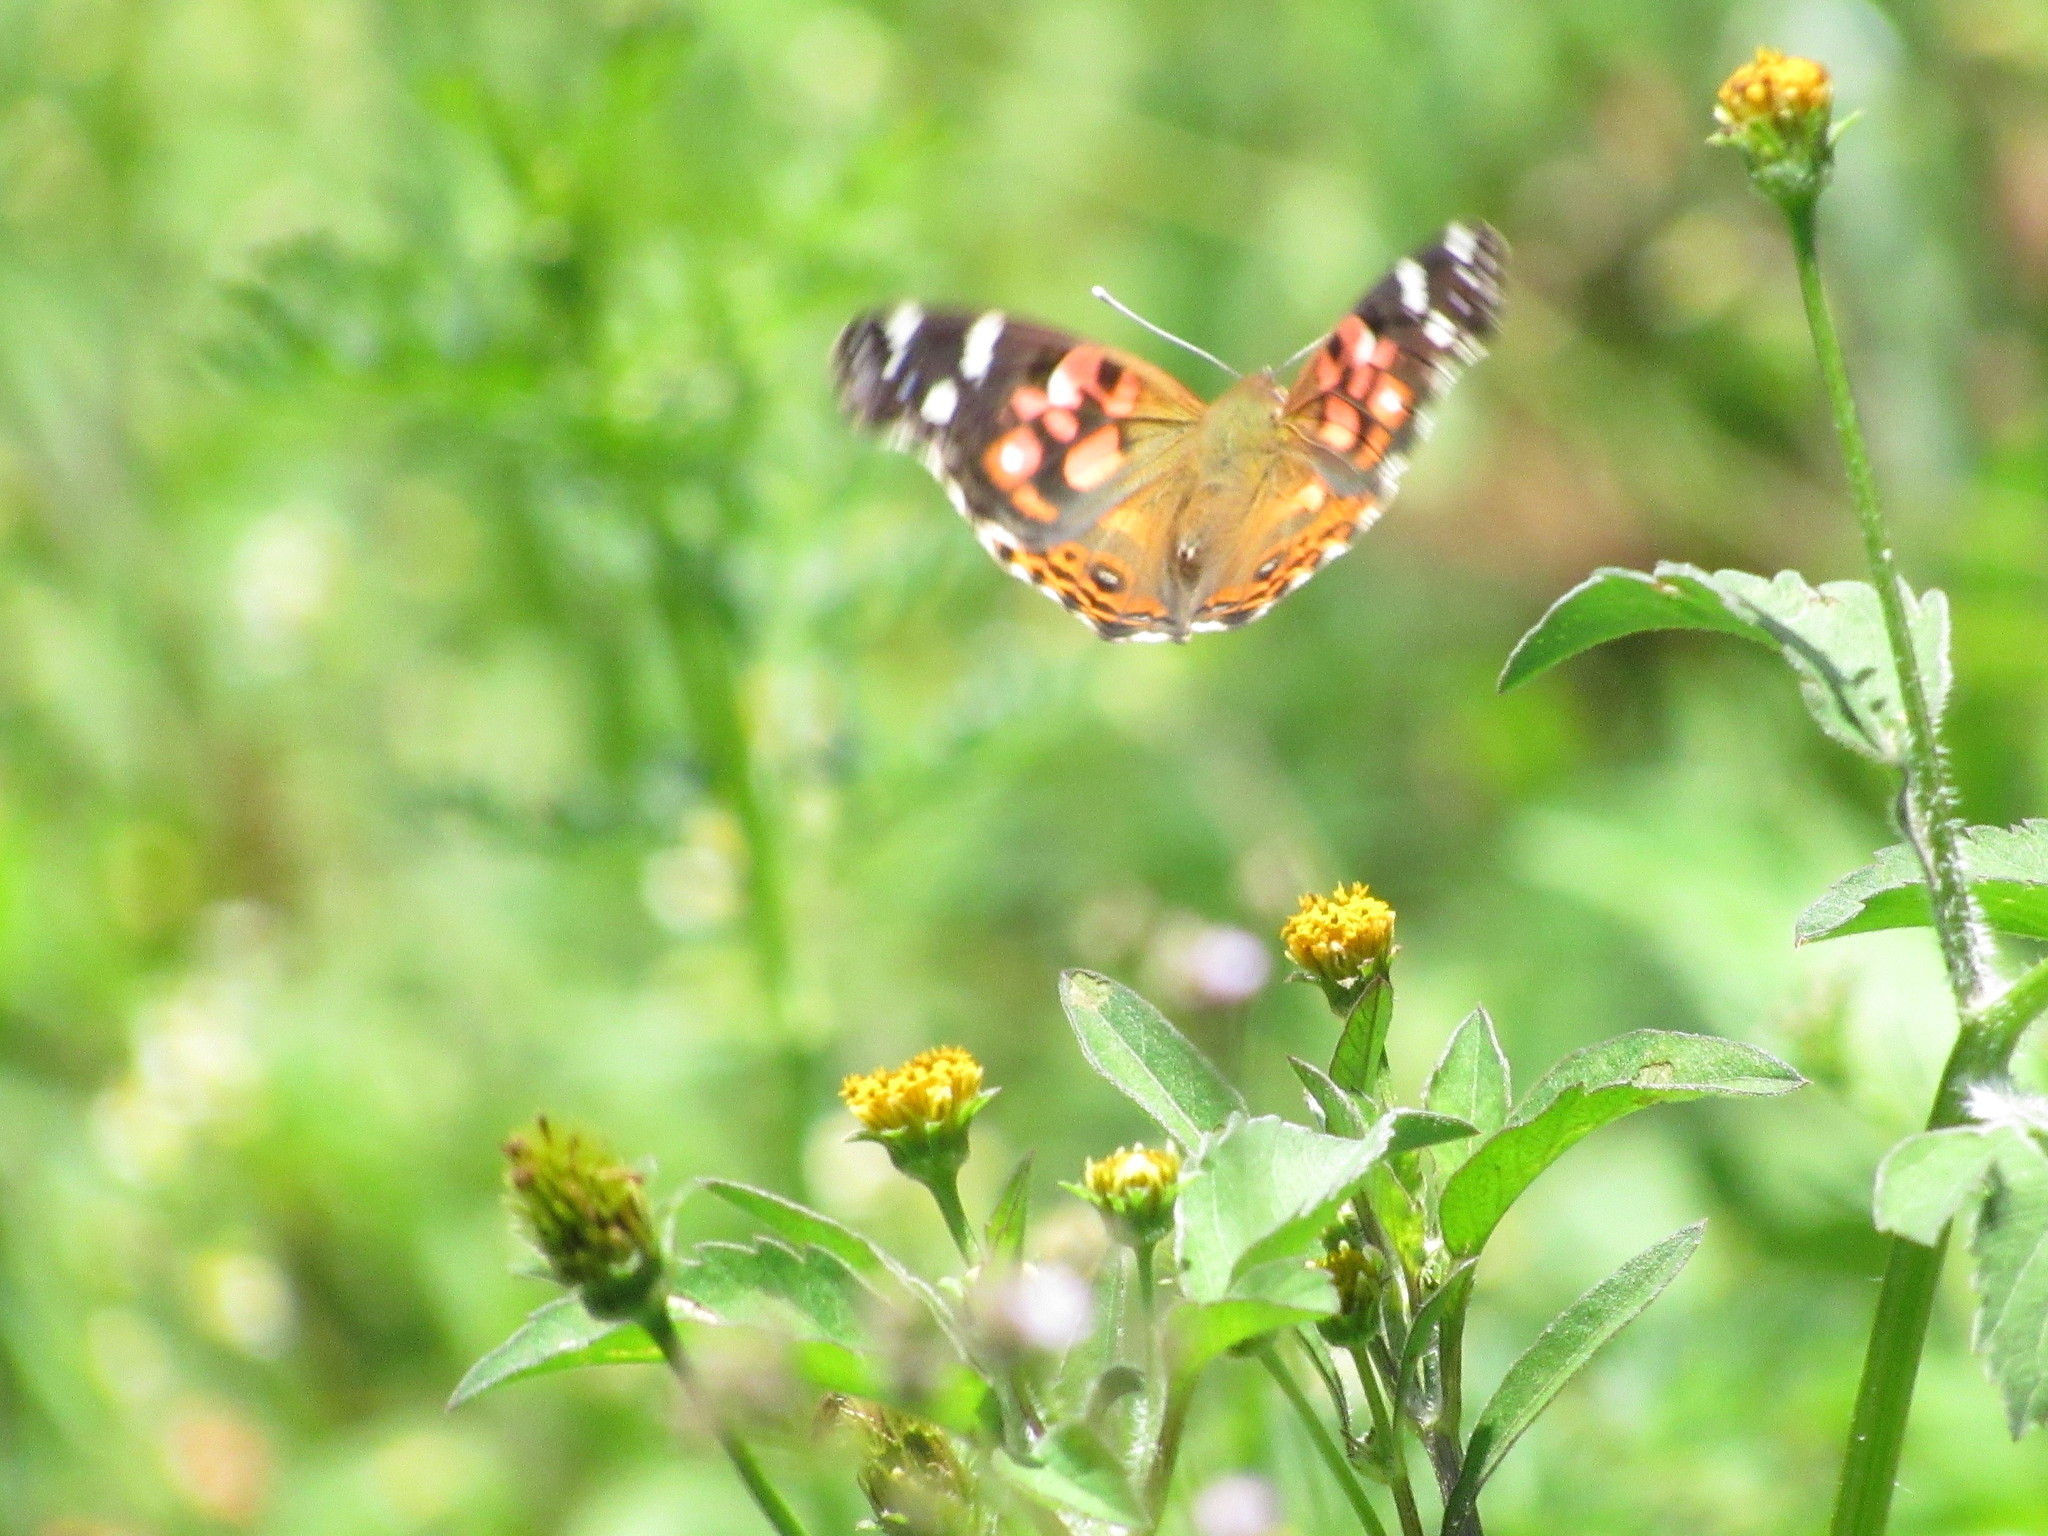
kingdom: Animalia
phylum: Arthropoda
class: Insecta
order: Lepidoptera
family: Nymphalidae
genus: Vanessa
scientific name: Vanessa braziliensis
